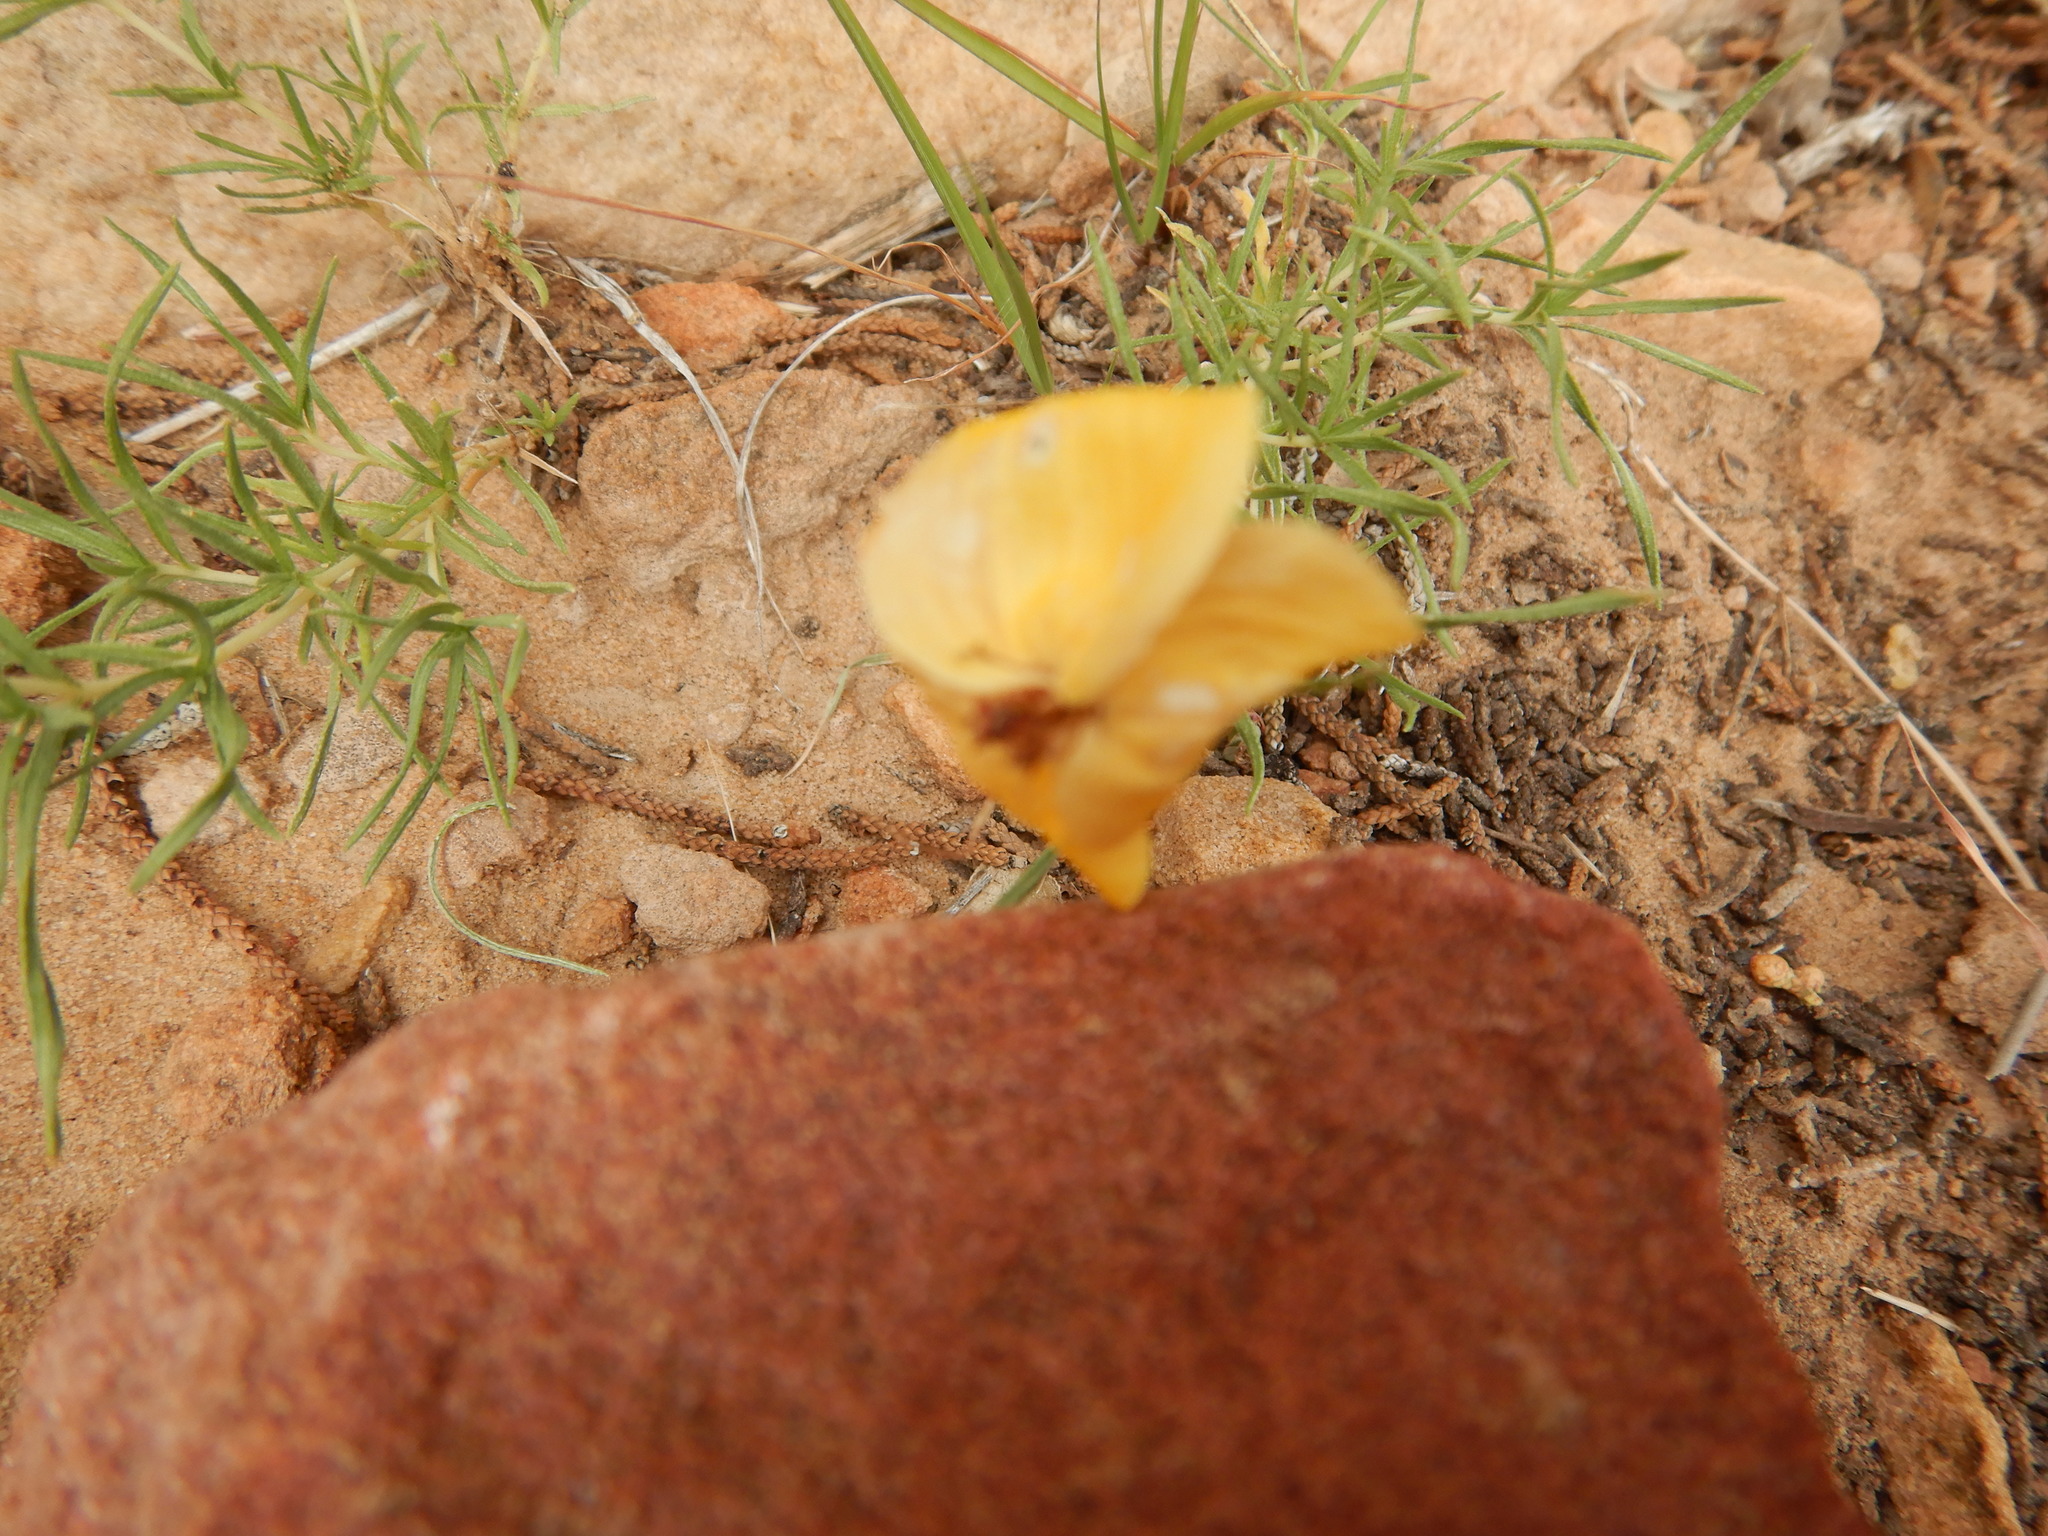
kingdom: Plantae
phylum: Tracheophyta
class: Magnoliopsida
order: Asterales
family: Asteraceae
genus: Zinnia
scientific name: Zinnia grandiflora
